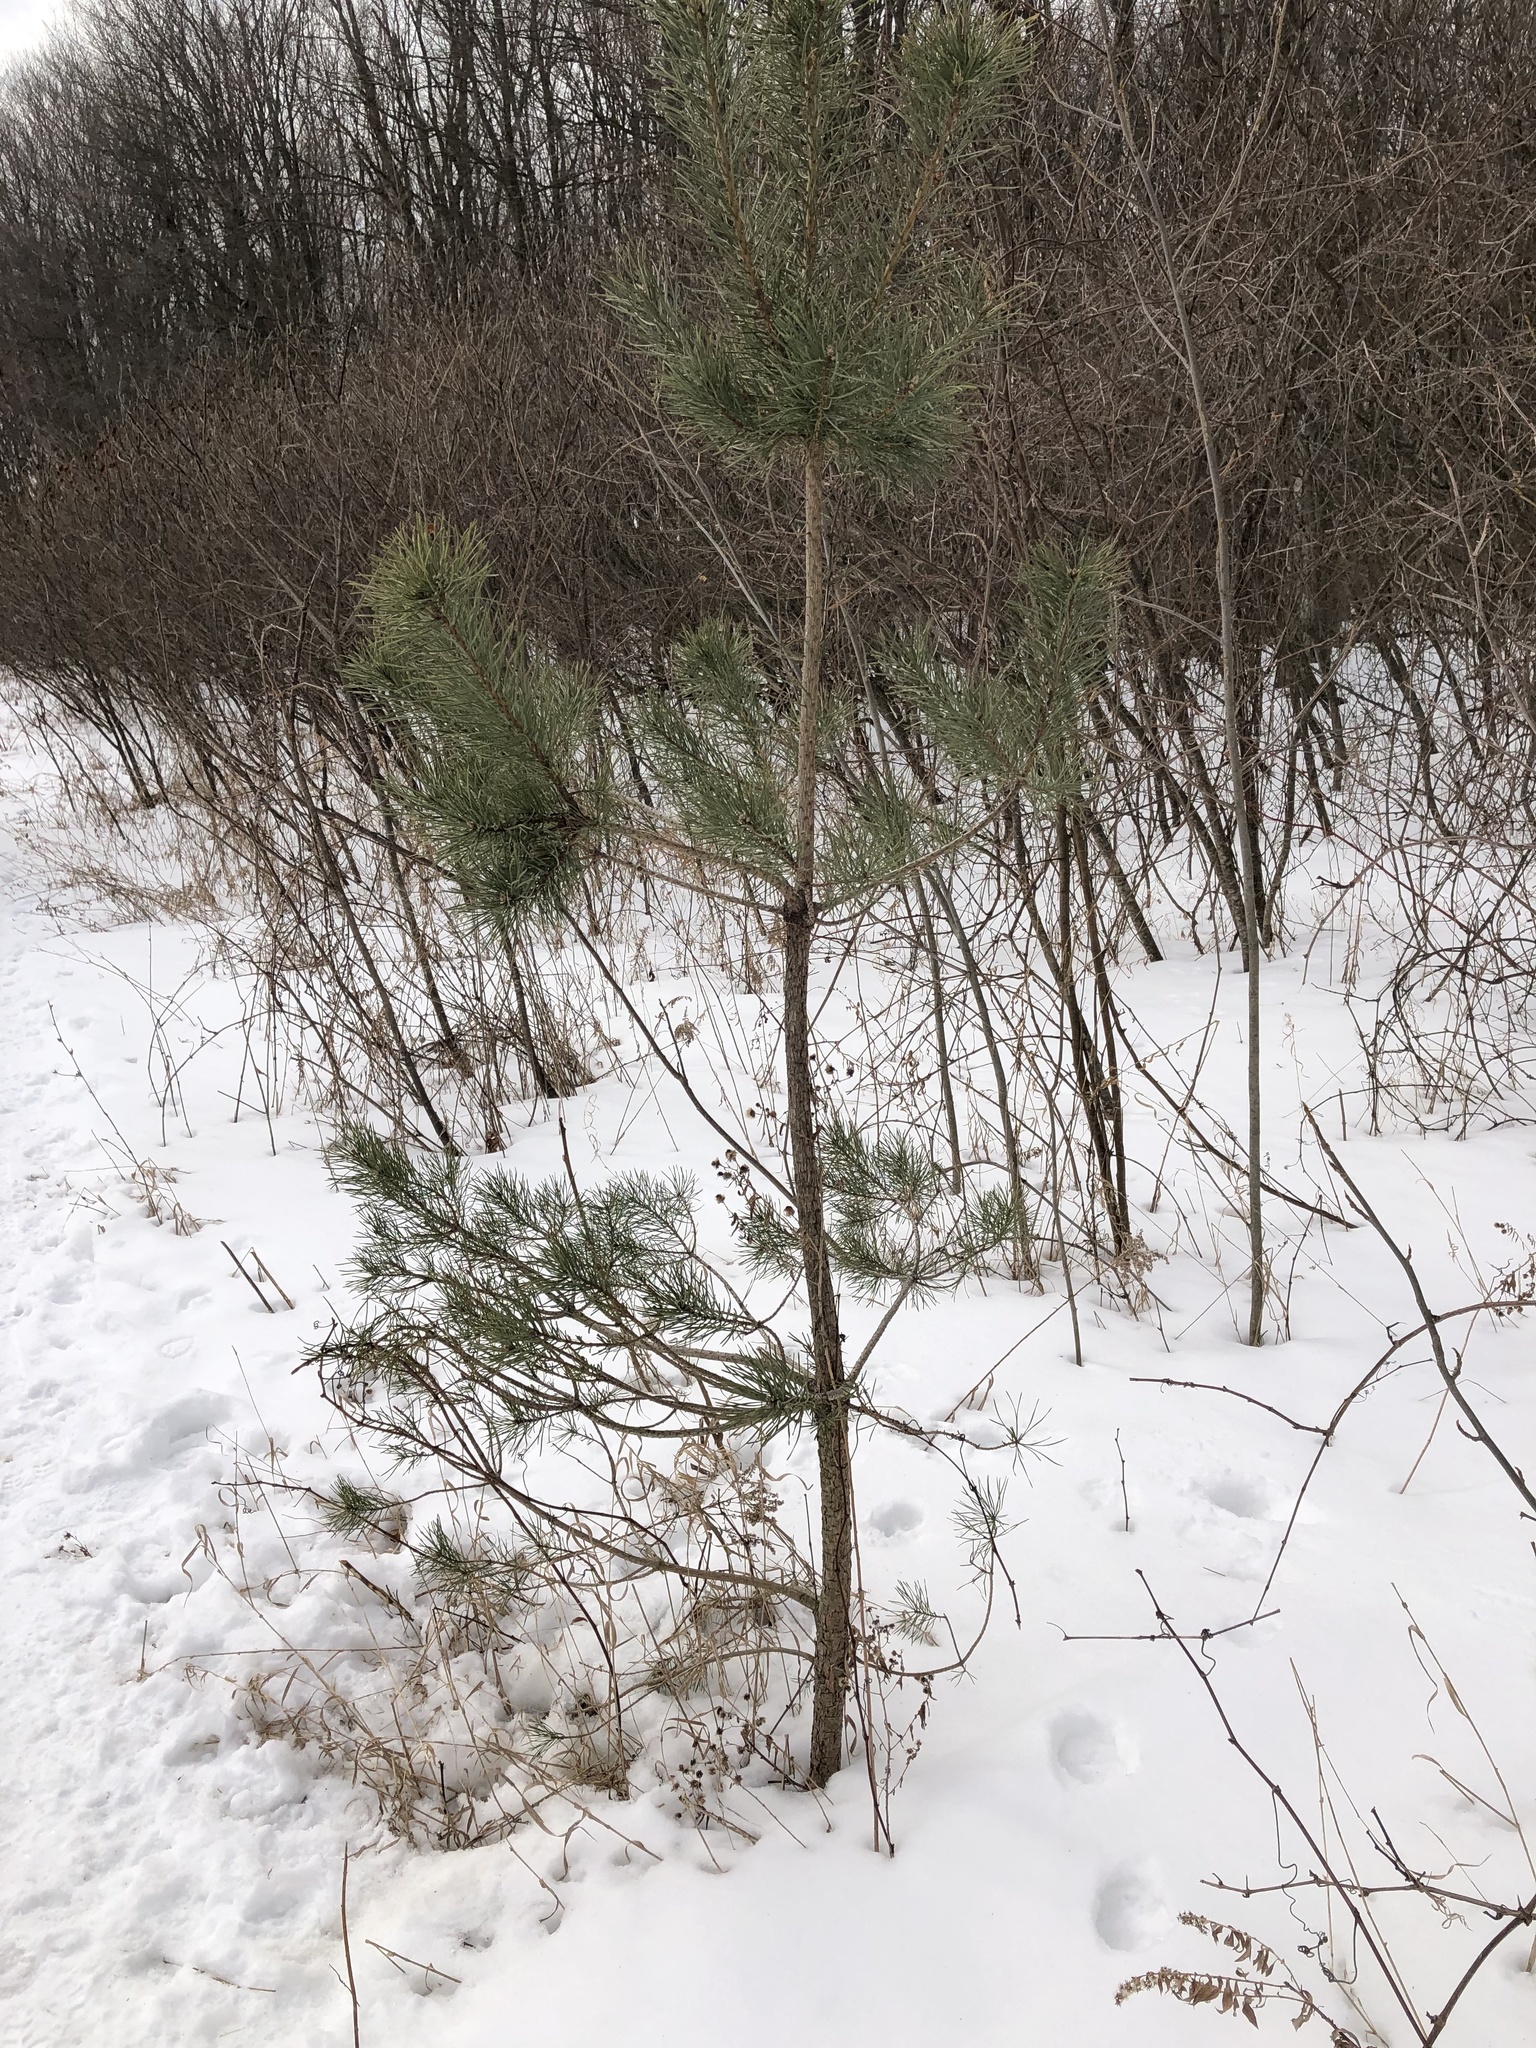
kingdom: Plantae
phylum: Tracheophyta
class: Pinopsida
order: Pinales
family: Pinaceae
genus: Pinus
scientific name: Pinus sylvestris
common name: Scots pine
